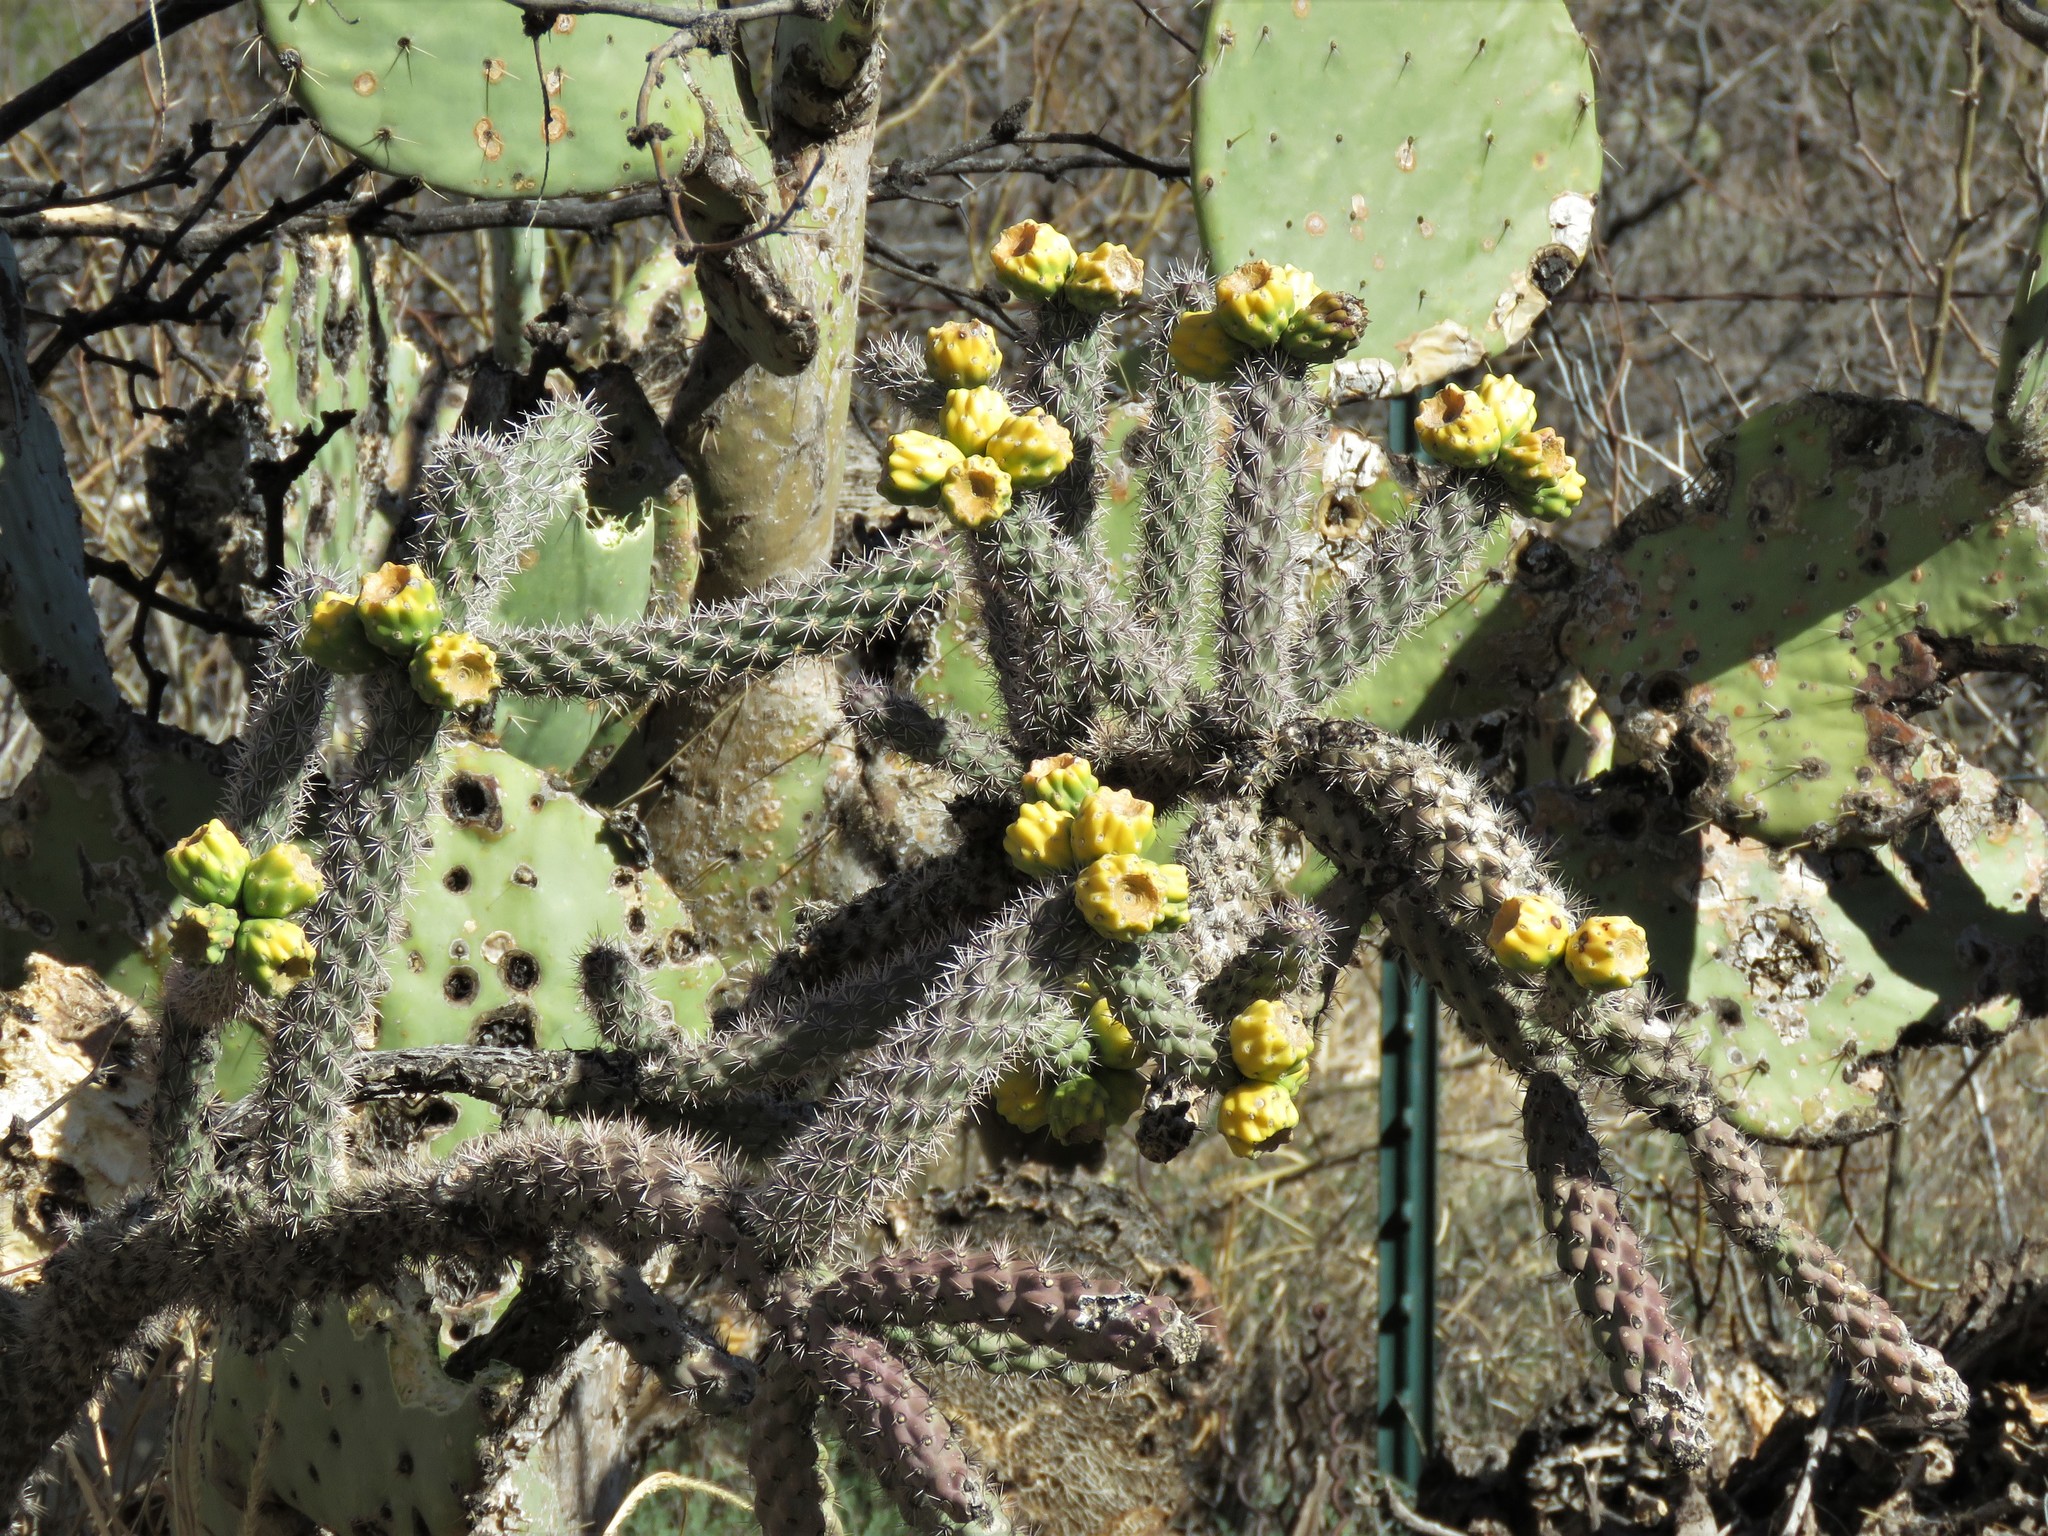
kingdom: Plantae
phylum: Tracheophyta
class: Magnoliopsida
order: Caryophyllales
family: Cactaceae
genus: Cylindropuntia
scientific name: Cylindropuntia imbricata
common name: Candelabrum cactus
